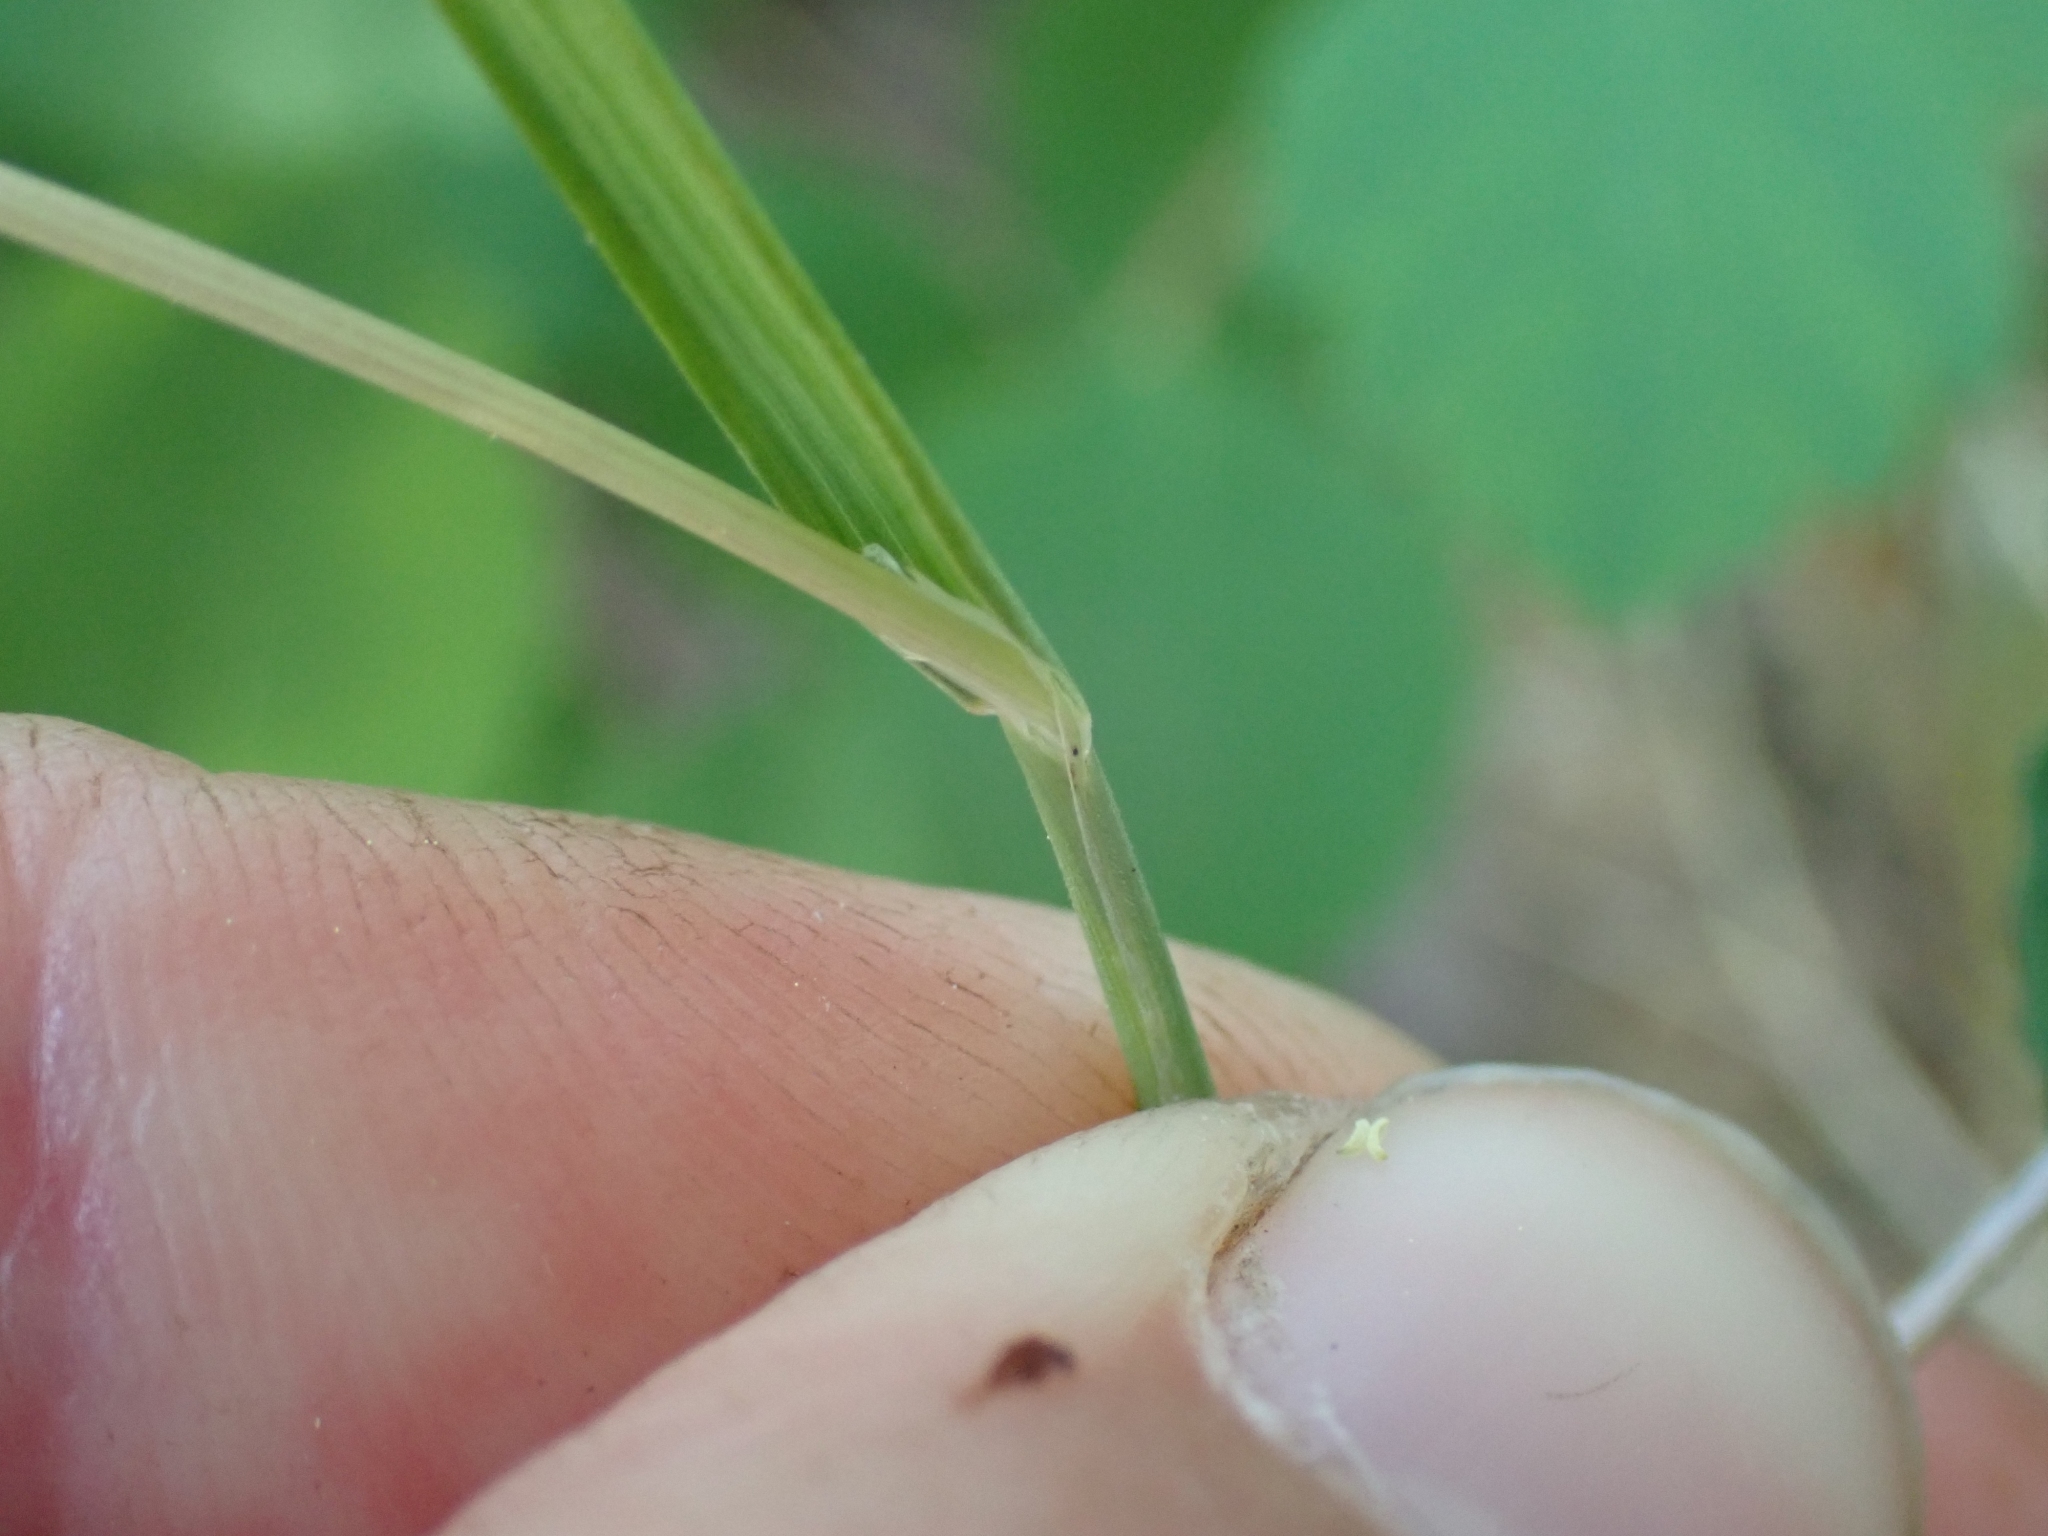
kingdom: Plantae
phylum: Tracheophyta
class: Liliopsida
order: Poales
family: Poaceae
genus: Poa
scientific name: Poa bulbosa
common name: Bulbous bluegrass
